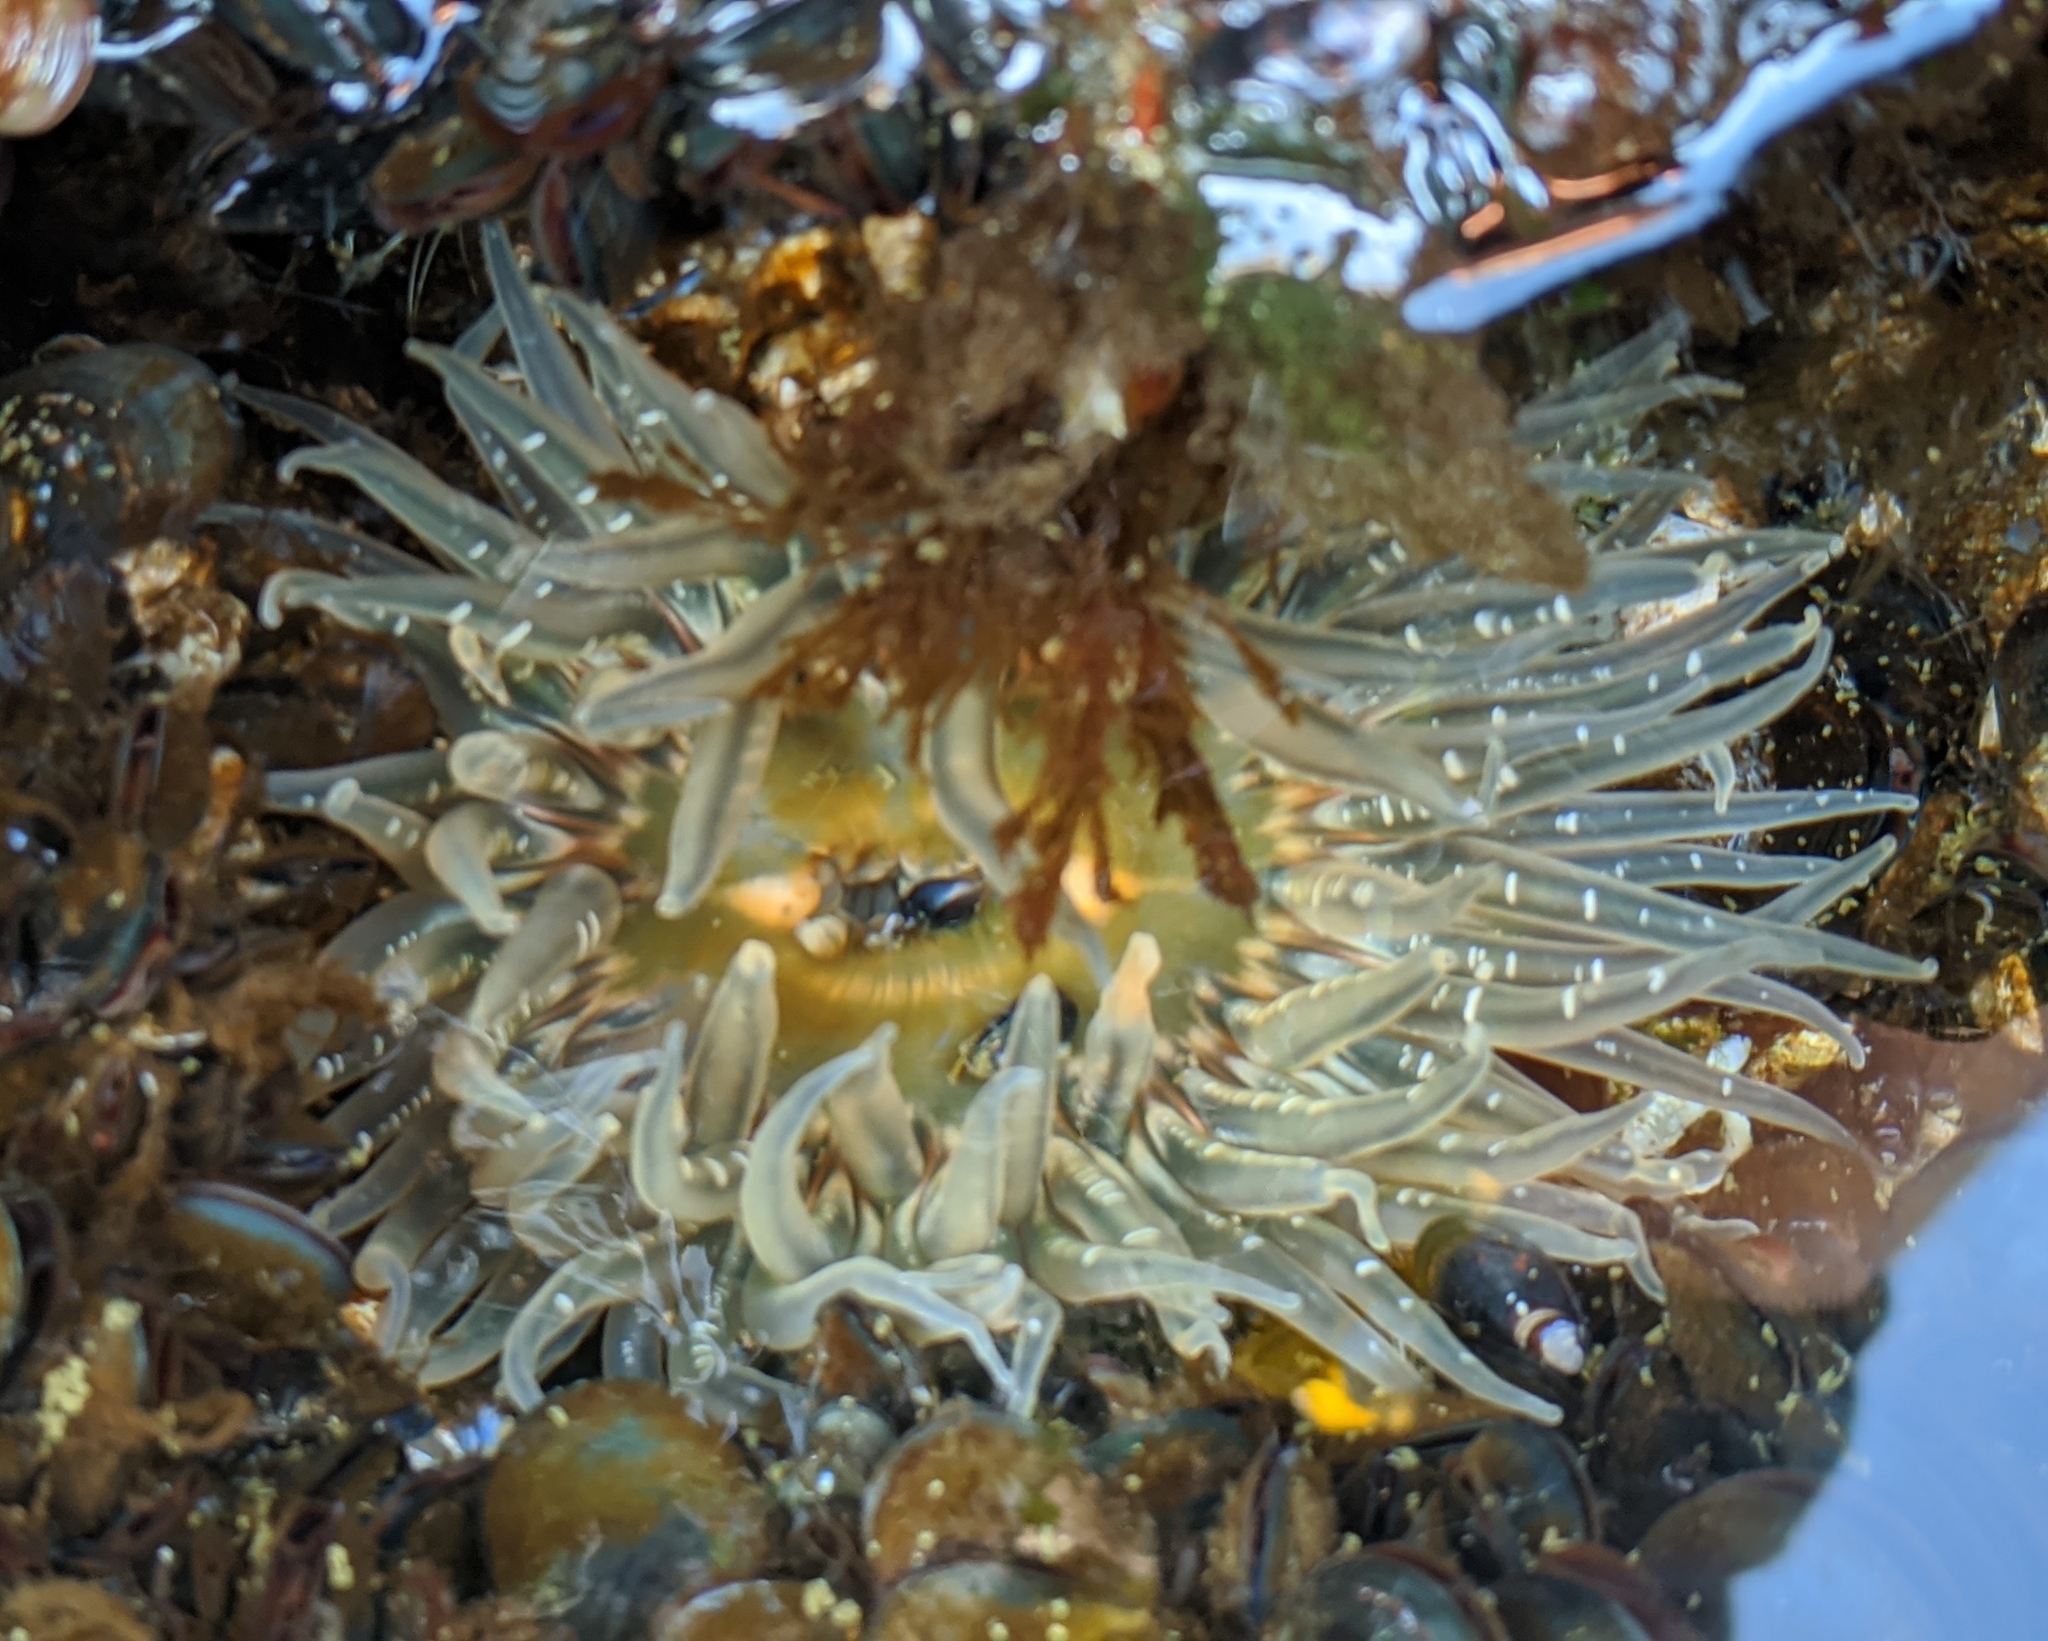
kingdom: Animalia
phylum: Cnidaria
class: Anthozoa
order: Actiniaria
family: Actiniidae
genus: Anthopleura
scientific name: Anthopleura artemisia
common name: Buried sea anemone
